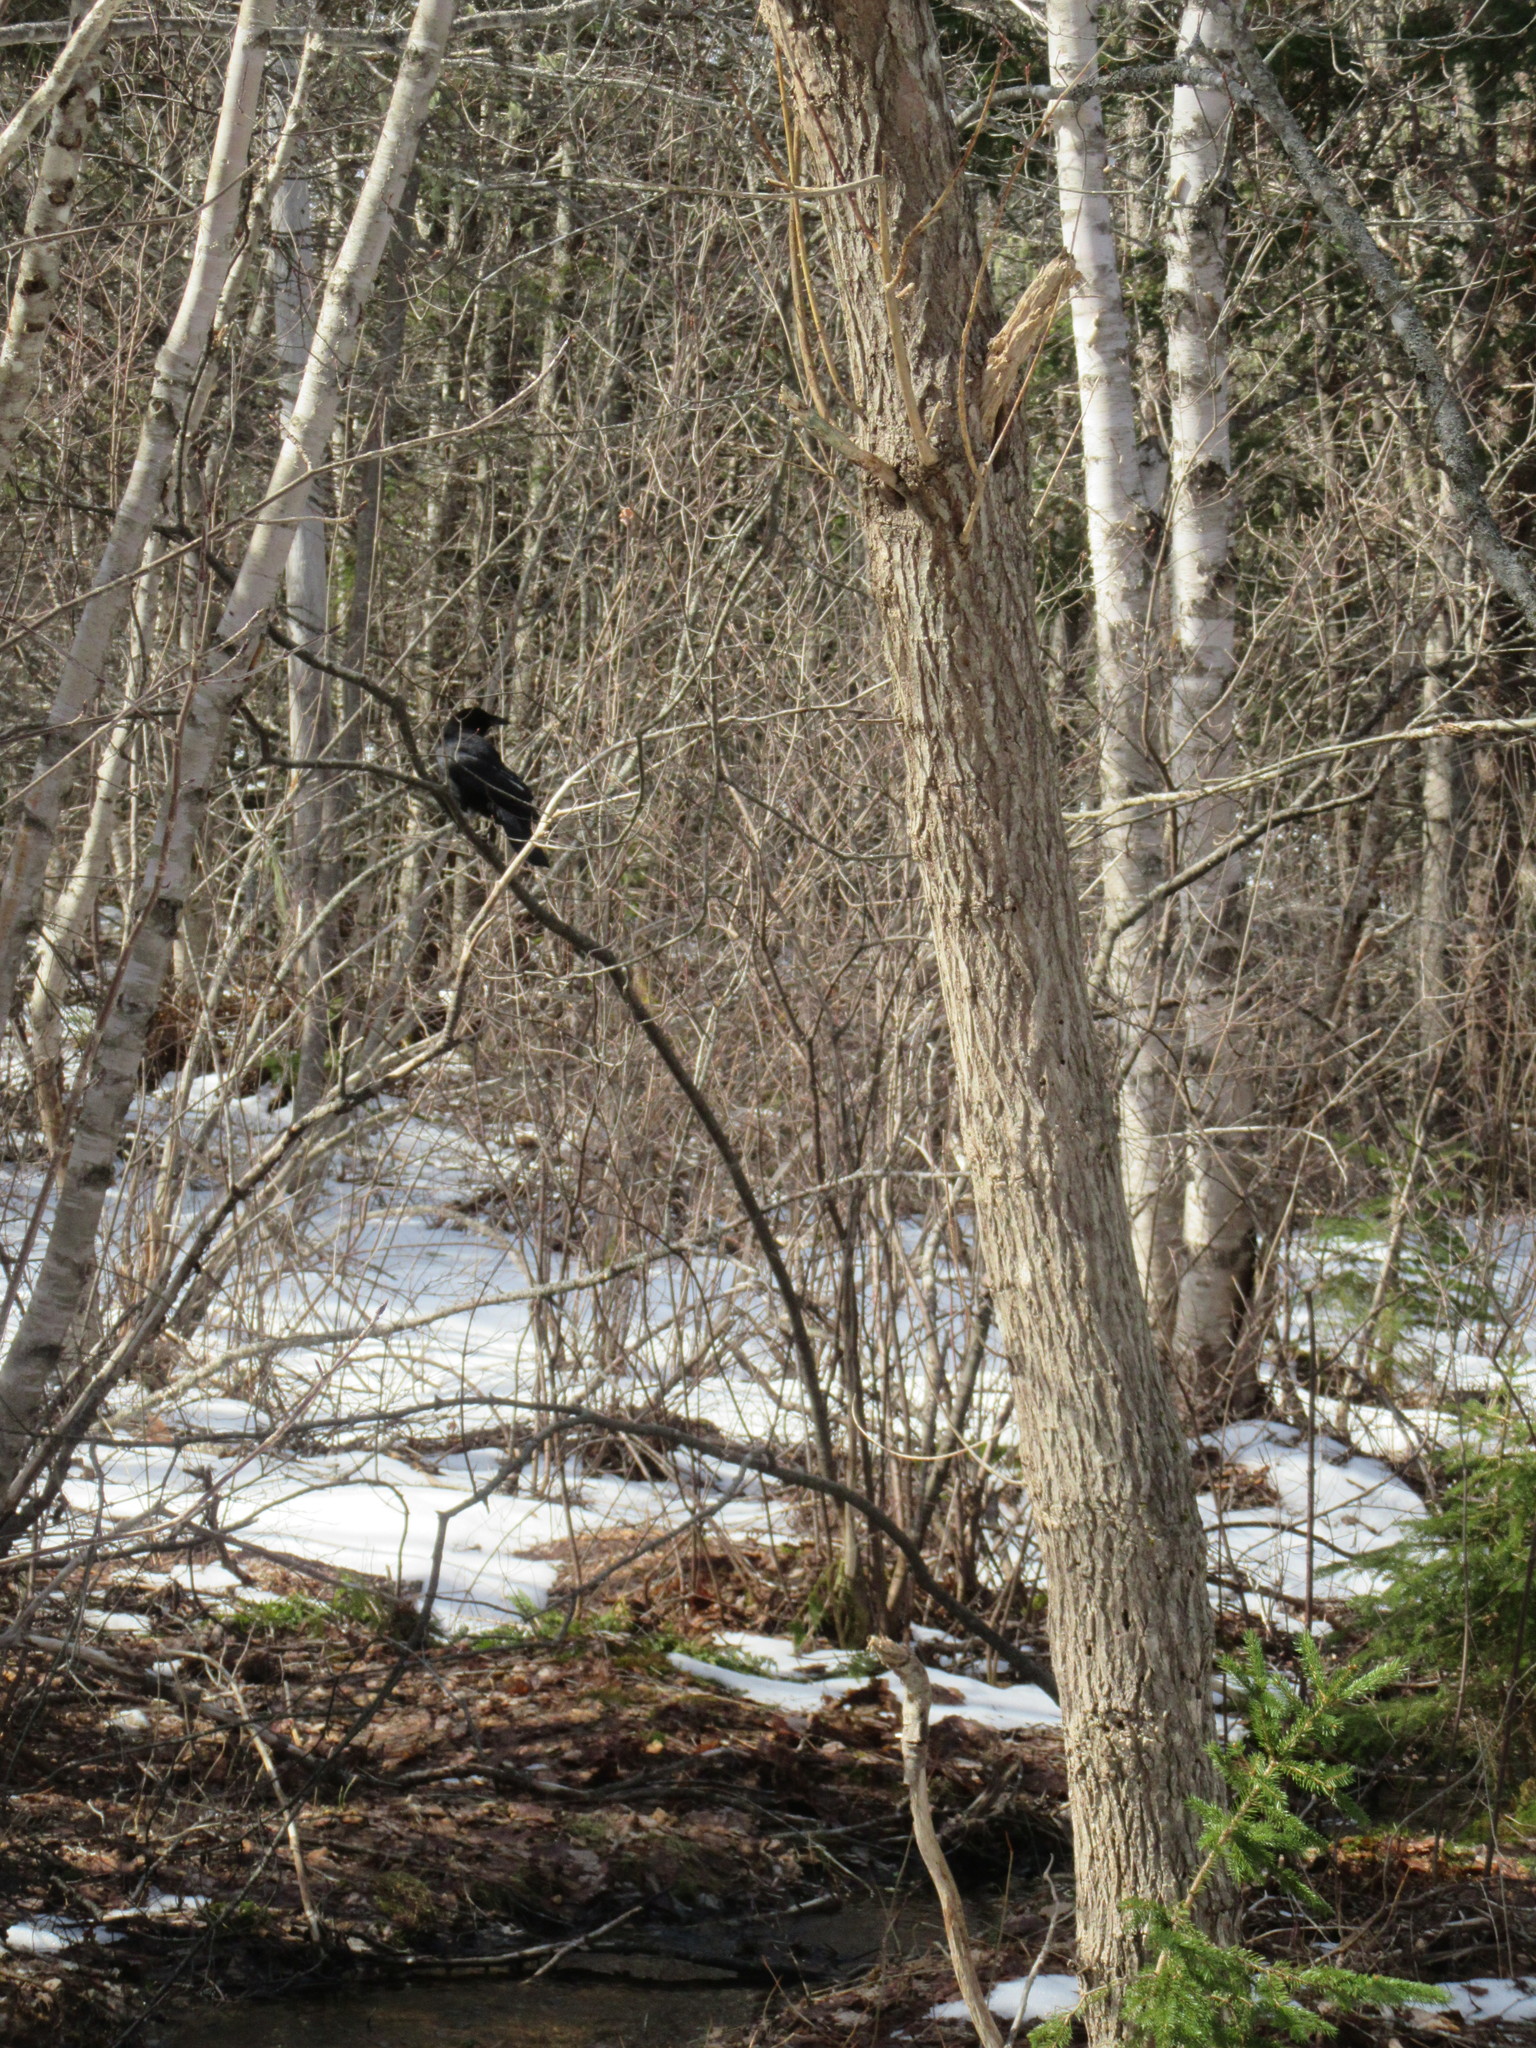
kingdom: Animalia
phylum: Chordata
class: Aves
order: Passeriformes
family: Corvidae
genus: Corvus
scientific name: Corvus brachyrhynchos
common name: American crow
